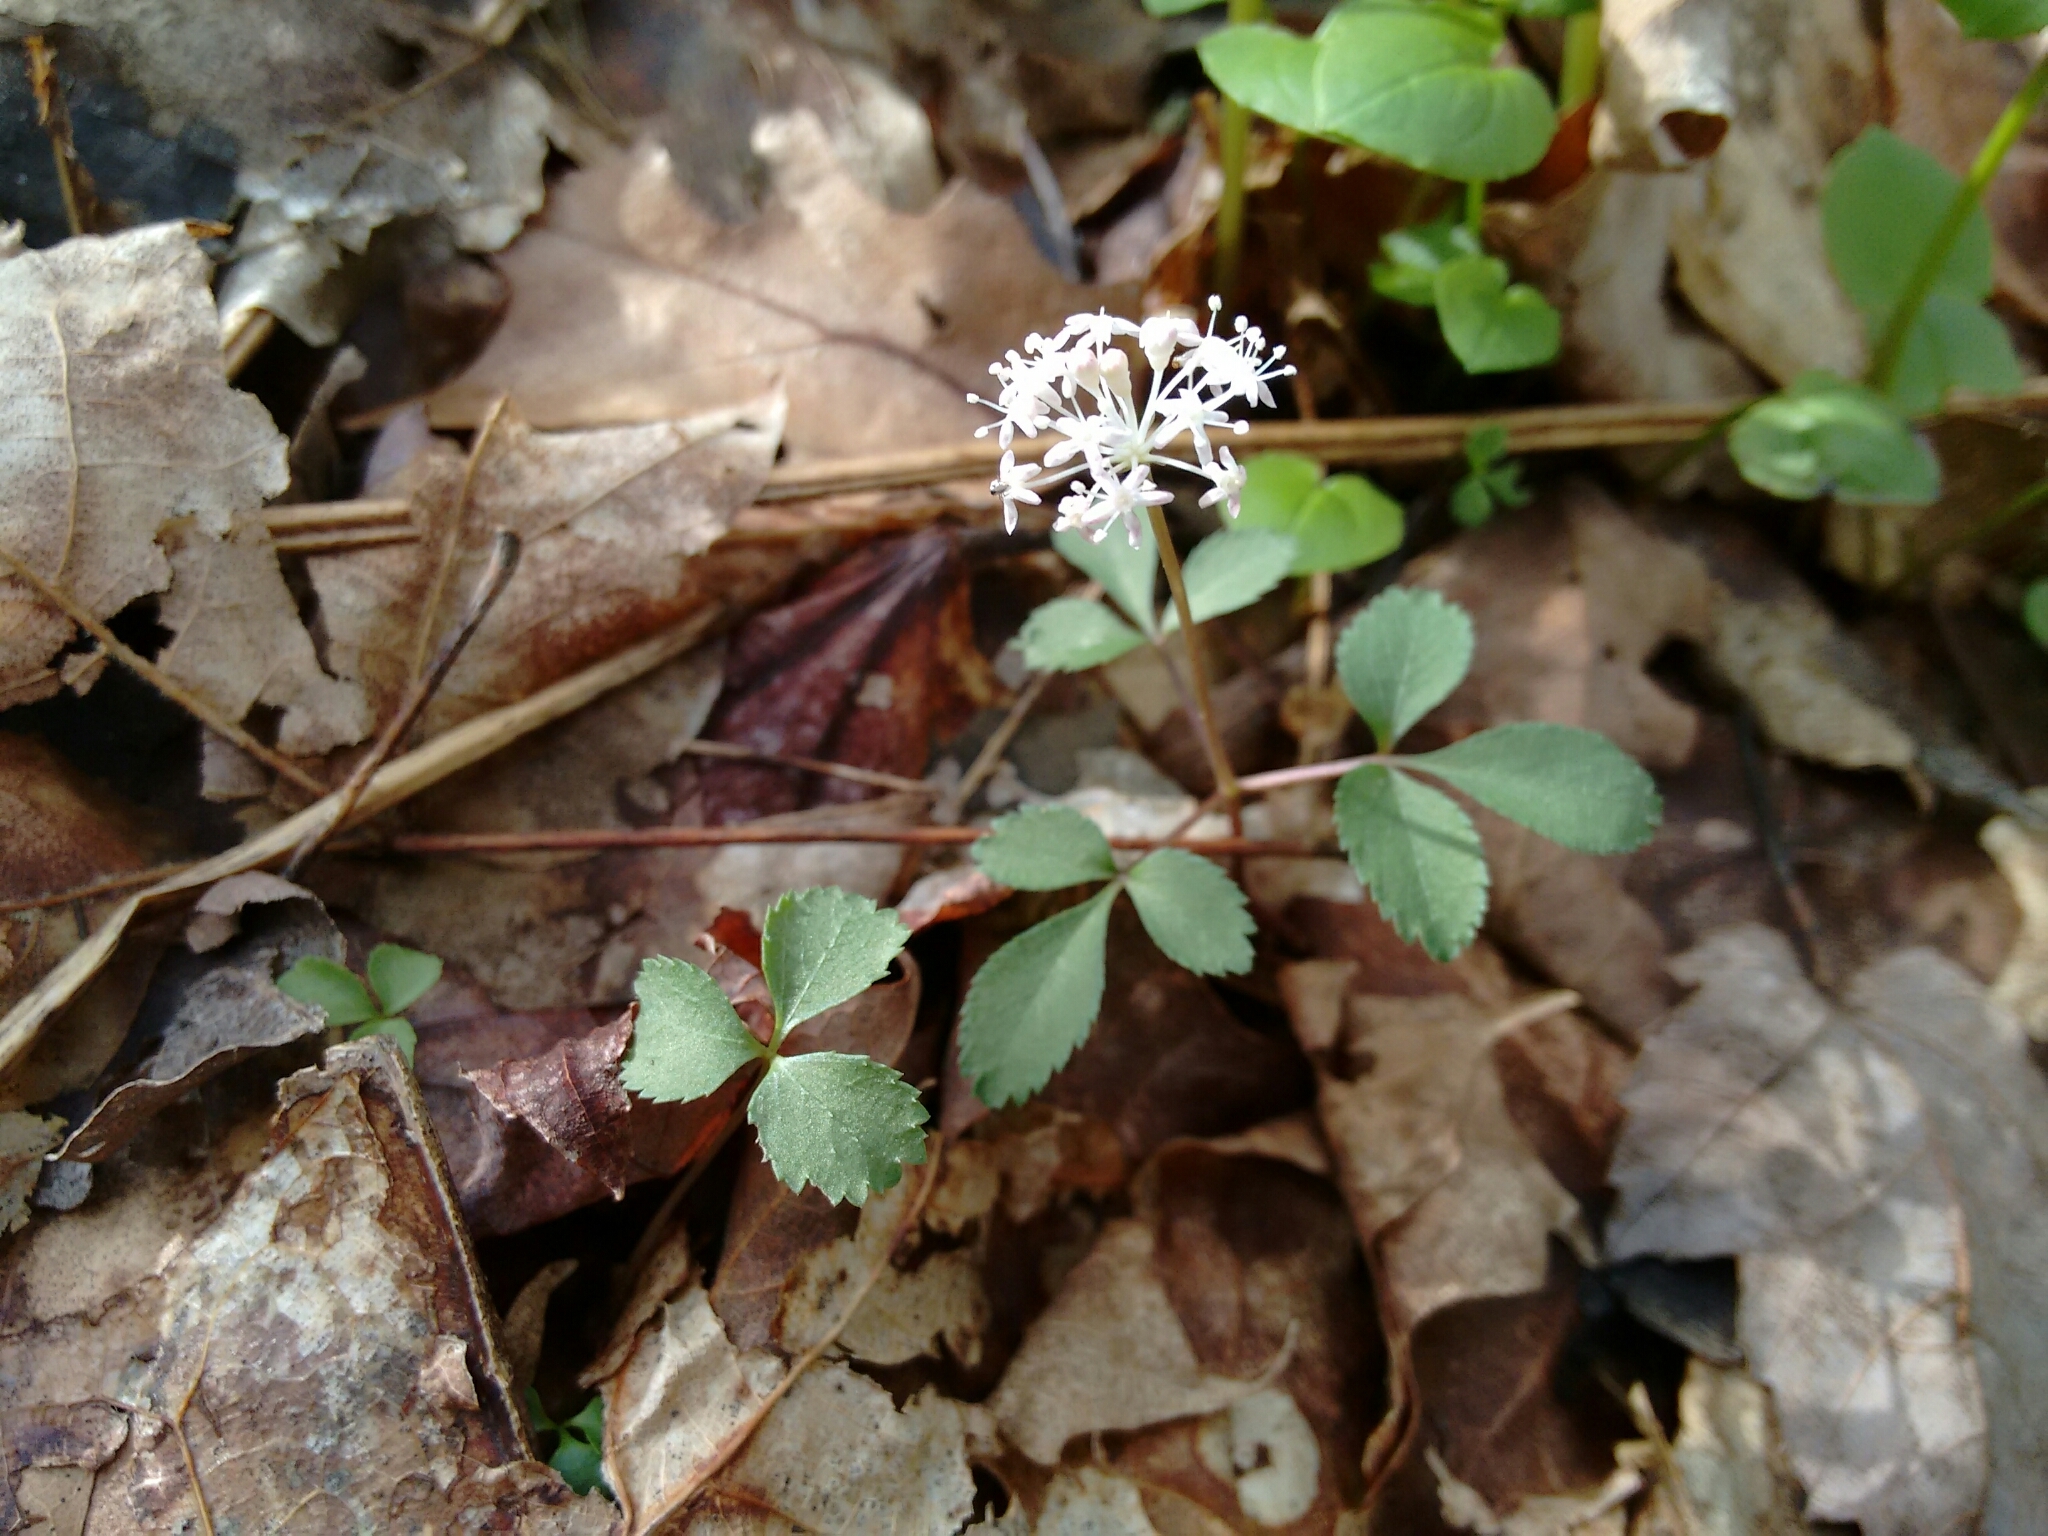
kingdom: Plantae
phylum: Tracheophyta
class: Magnoliopsida
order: Apiales
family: Araliaceae
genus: Panax
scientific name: Panax trifolius
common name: Dwarf ginseng
